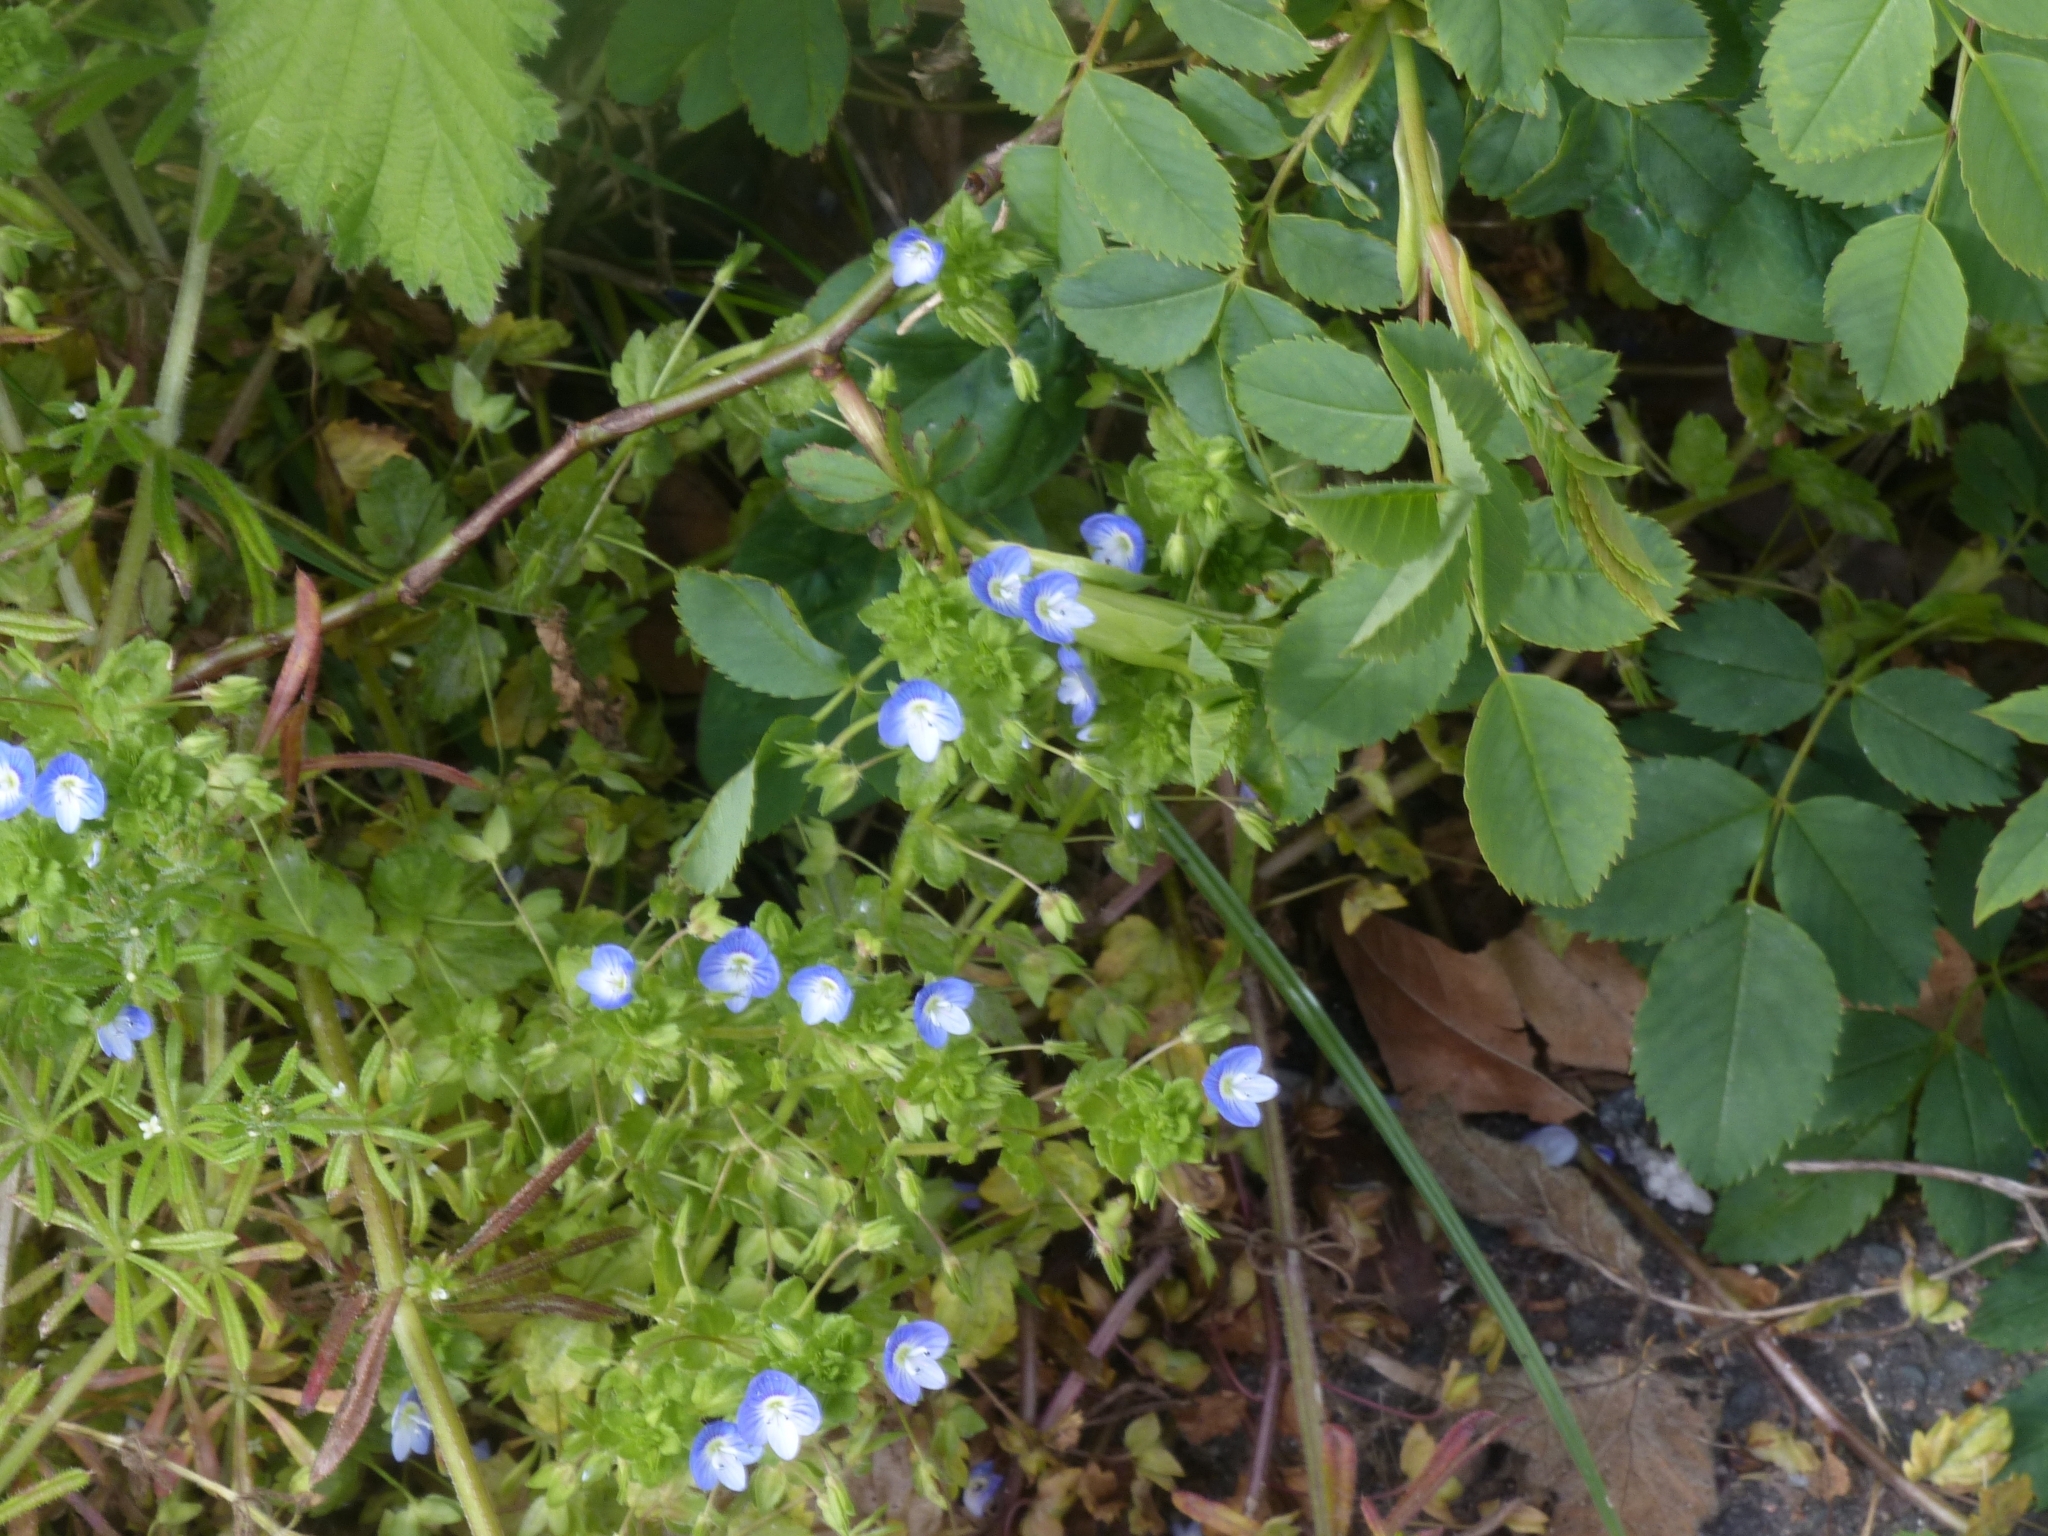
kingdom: Plantae
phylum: Tracheophyta
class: Magnoliopsida
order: Lamiales
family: Plantaginaceae
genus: Veronica
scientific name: Veronica persica
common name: Common field-speedwell
